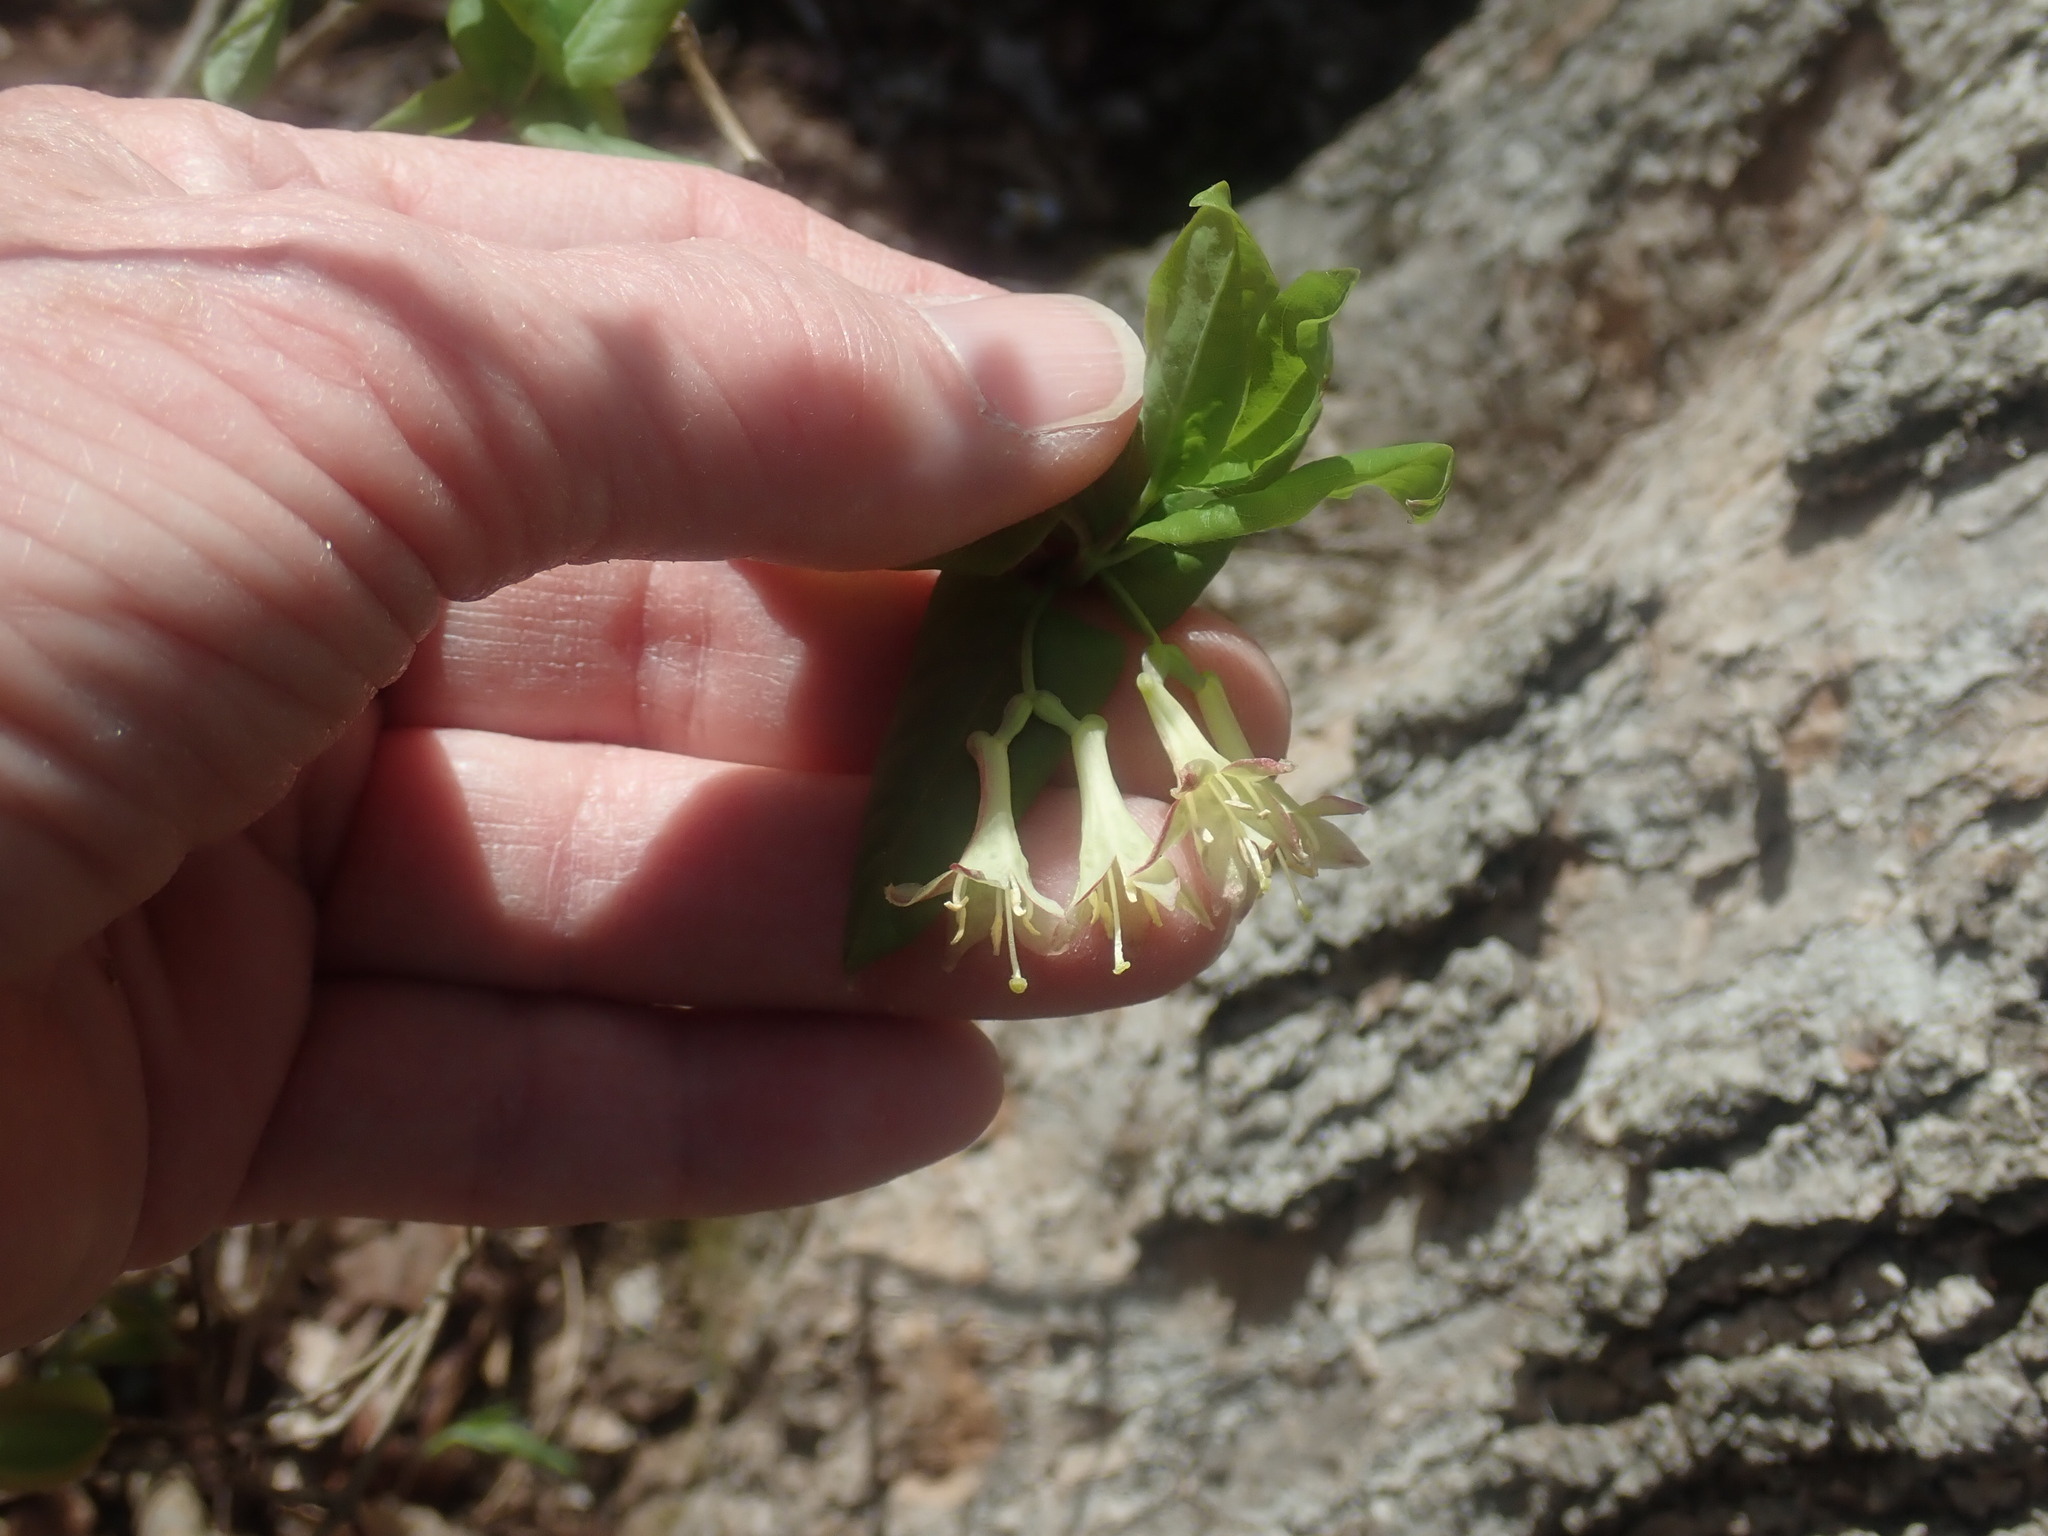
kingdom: Plantae
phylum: Tracheophyta
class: Magnoliopsida
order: Dipsacales
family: Caprifoliaceae
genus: Lonicera
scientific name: Lonicera canadensis
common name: American fly-honeysuckle
